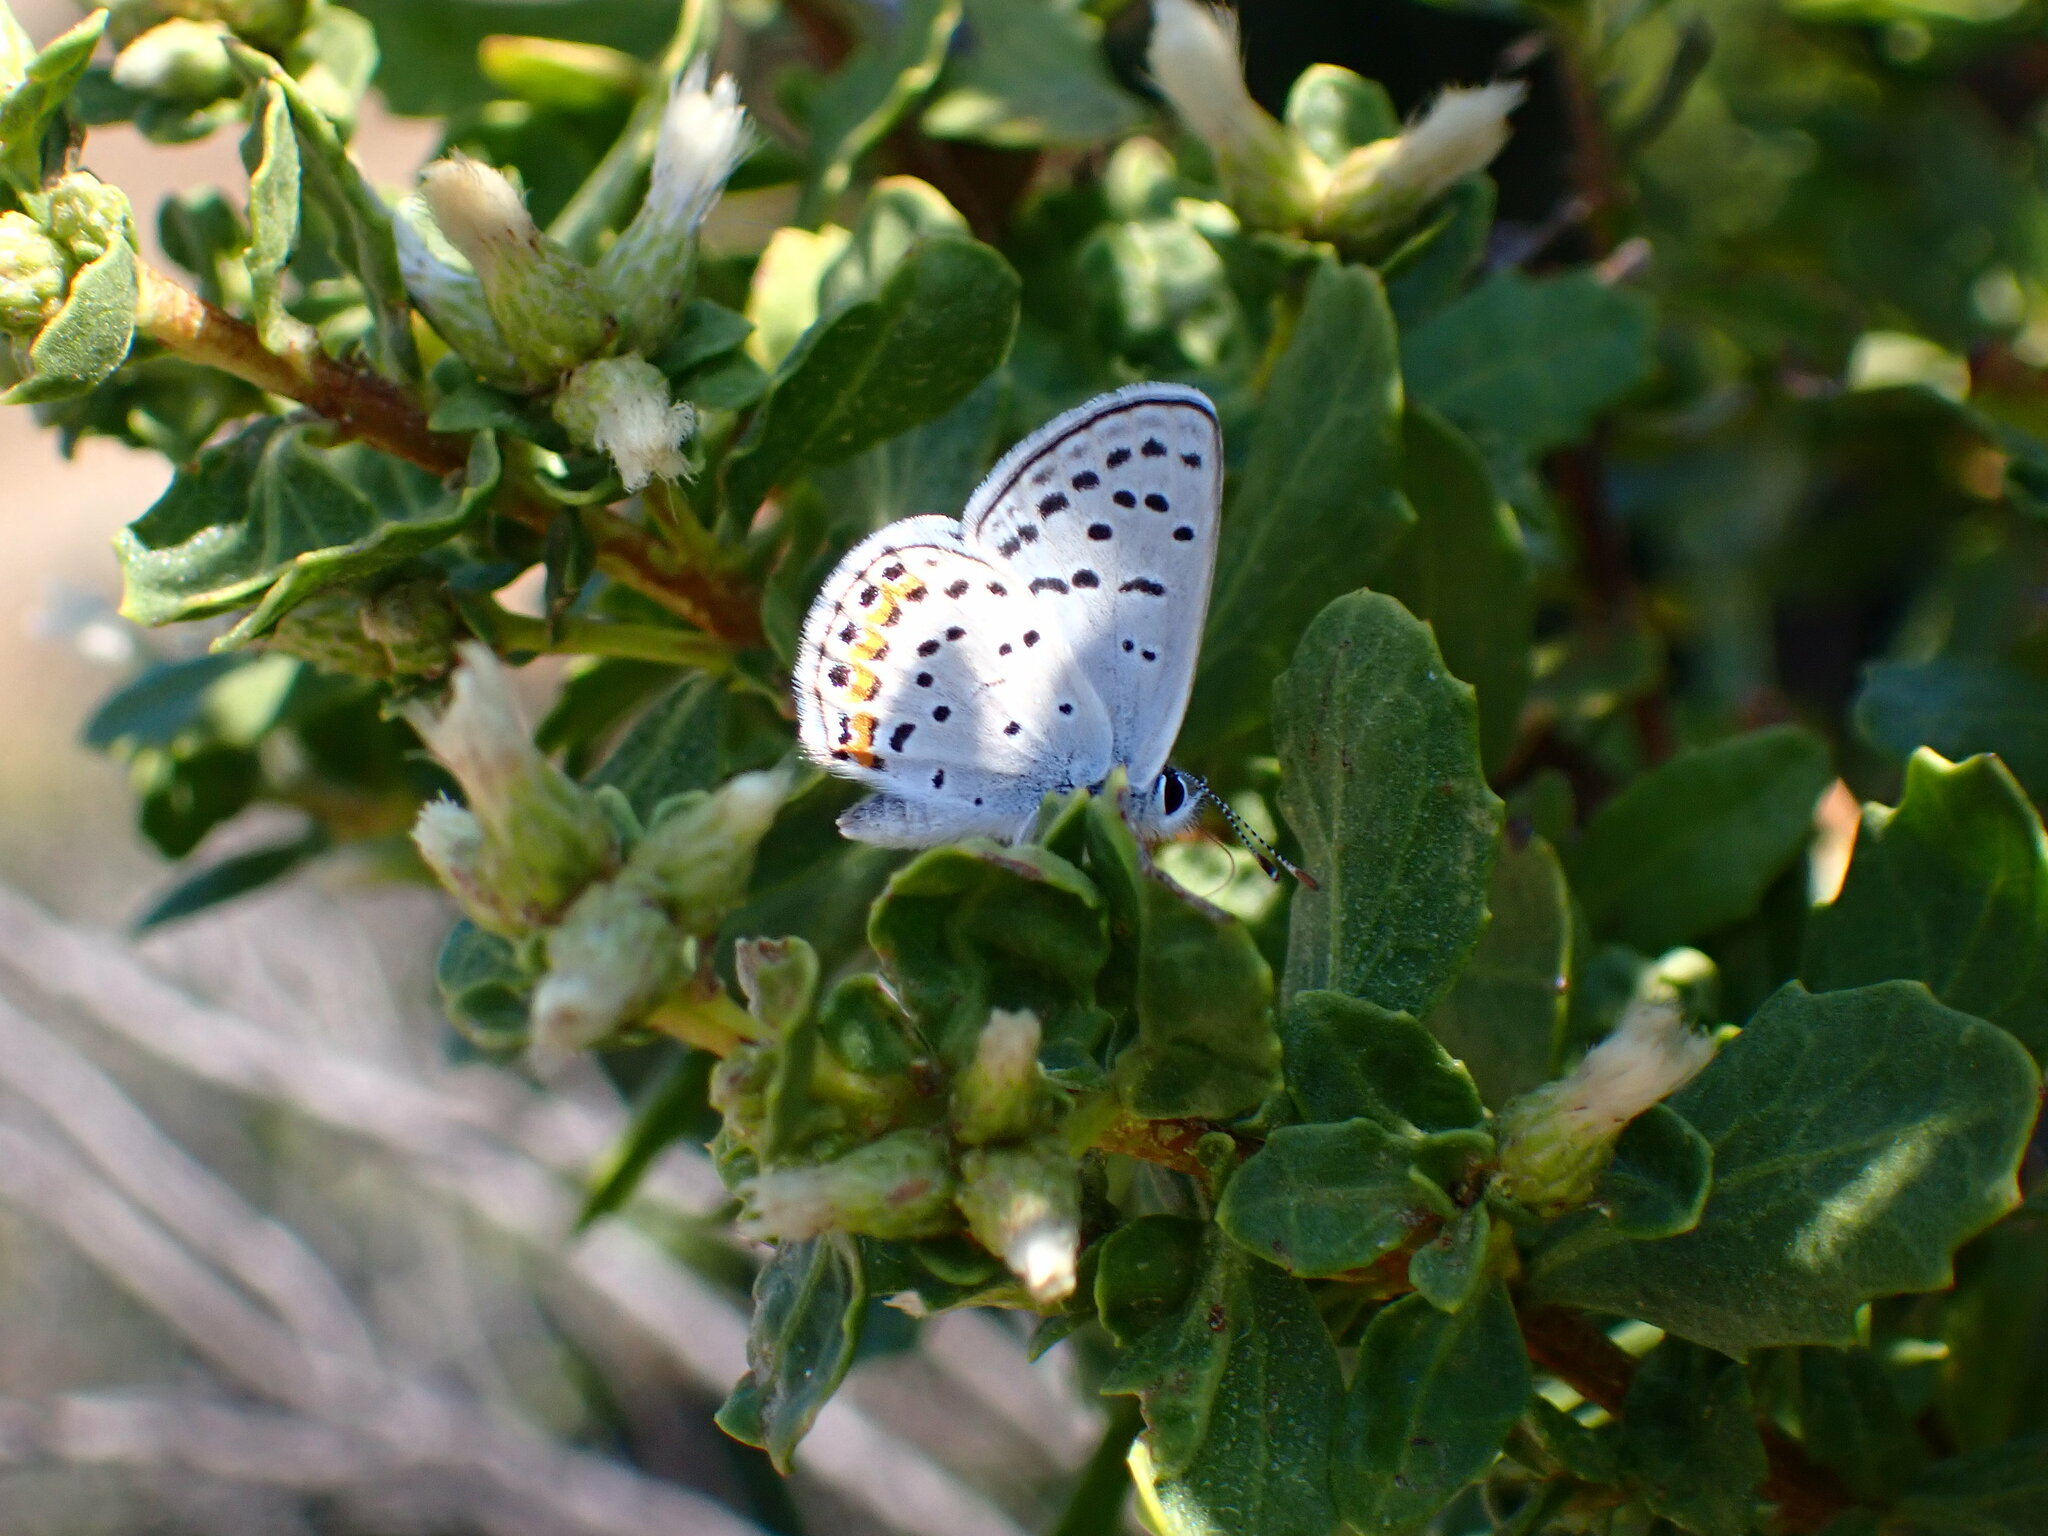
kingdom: Animalia
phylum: Arthropoda
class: Insecta
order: Lepidoptera
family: Lycaenidae
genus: Icaricia
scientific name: Icaricia acmon
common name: Acmon blue
